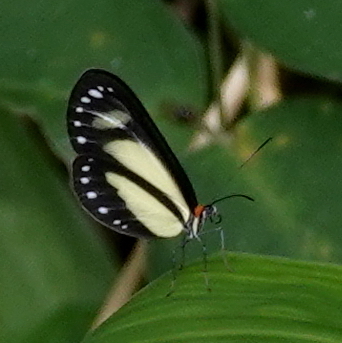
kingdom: Animalia
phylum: Arthropoda
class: Insecta
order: Lepidoptera
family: Nymphalidae
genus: Scada
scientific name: Scada zibia
